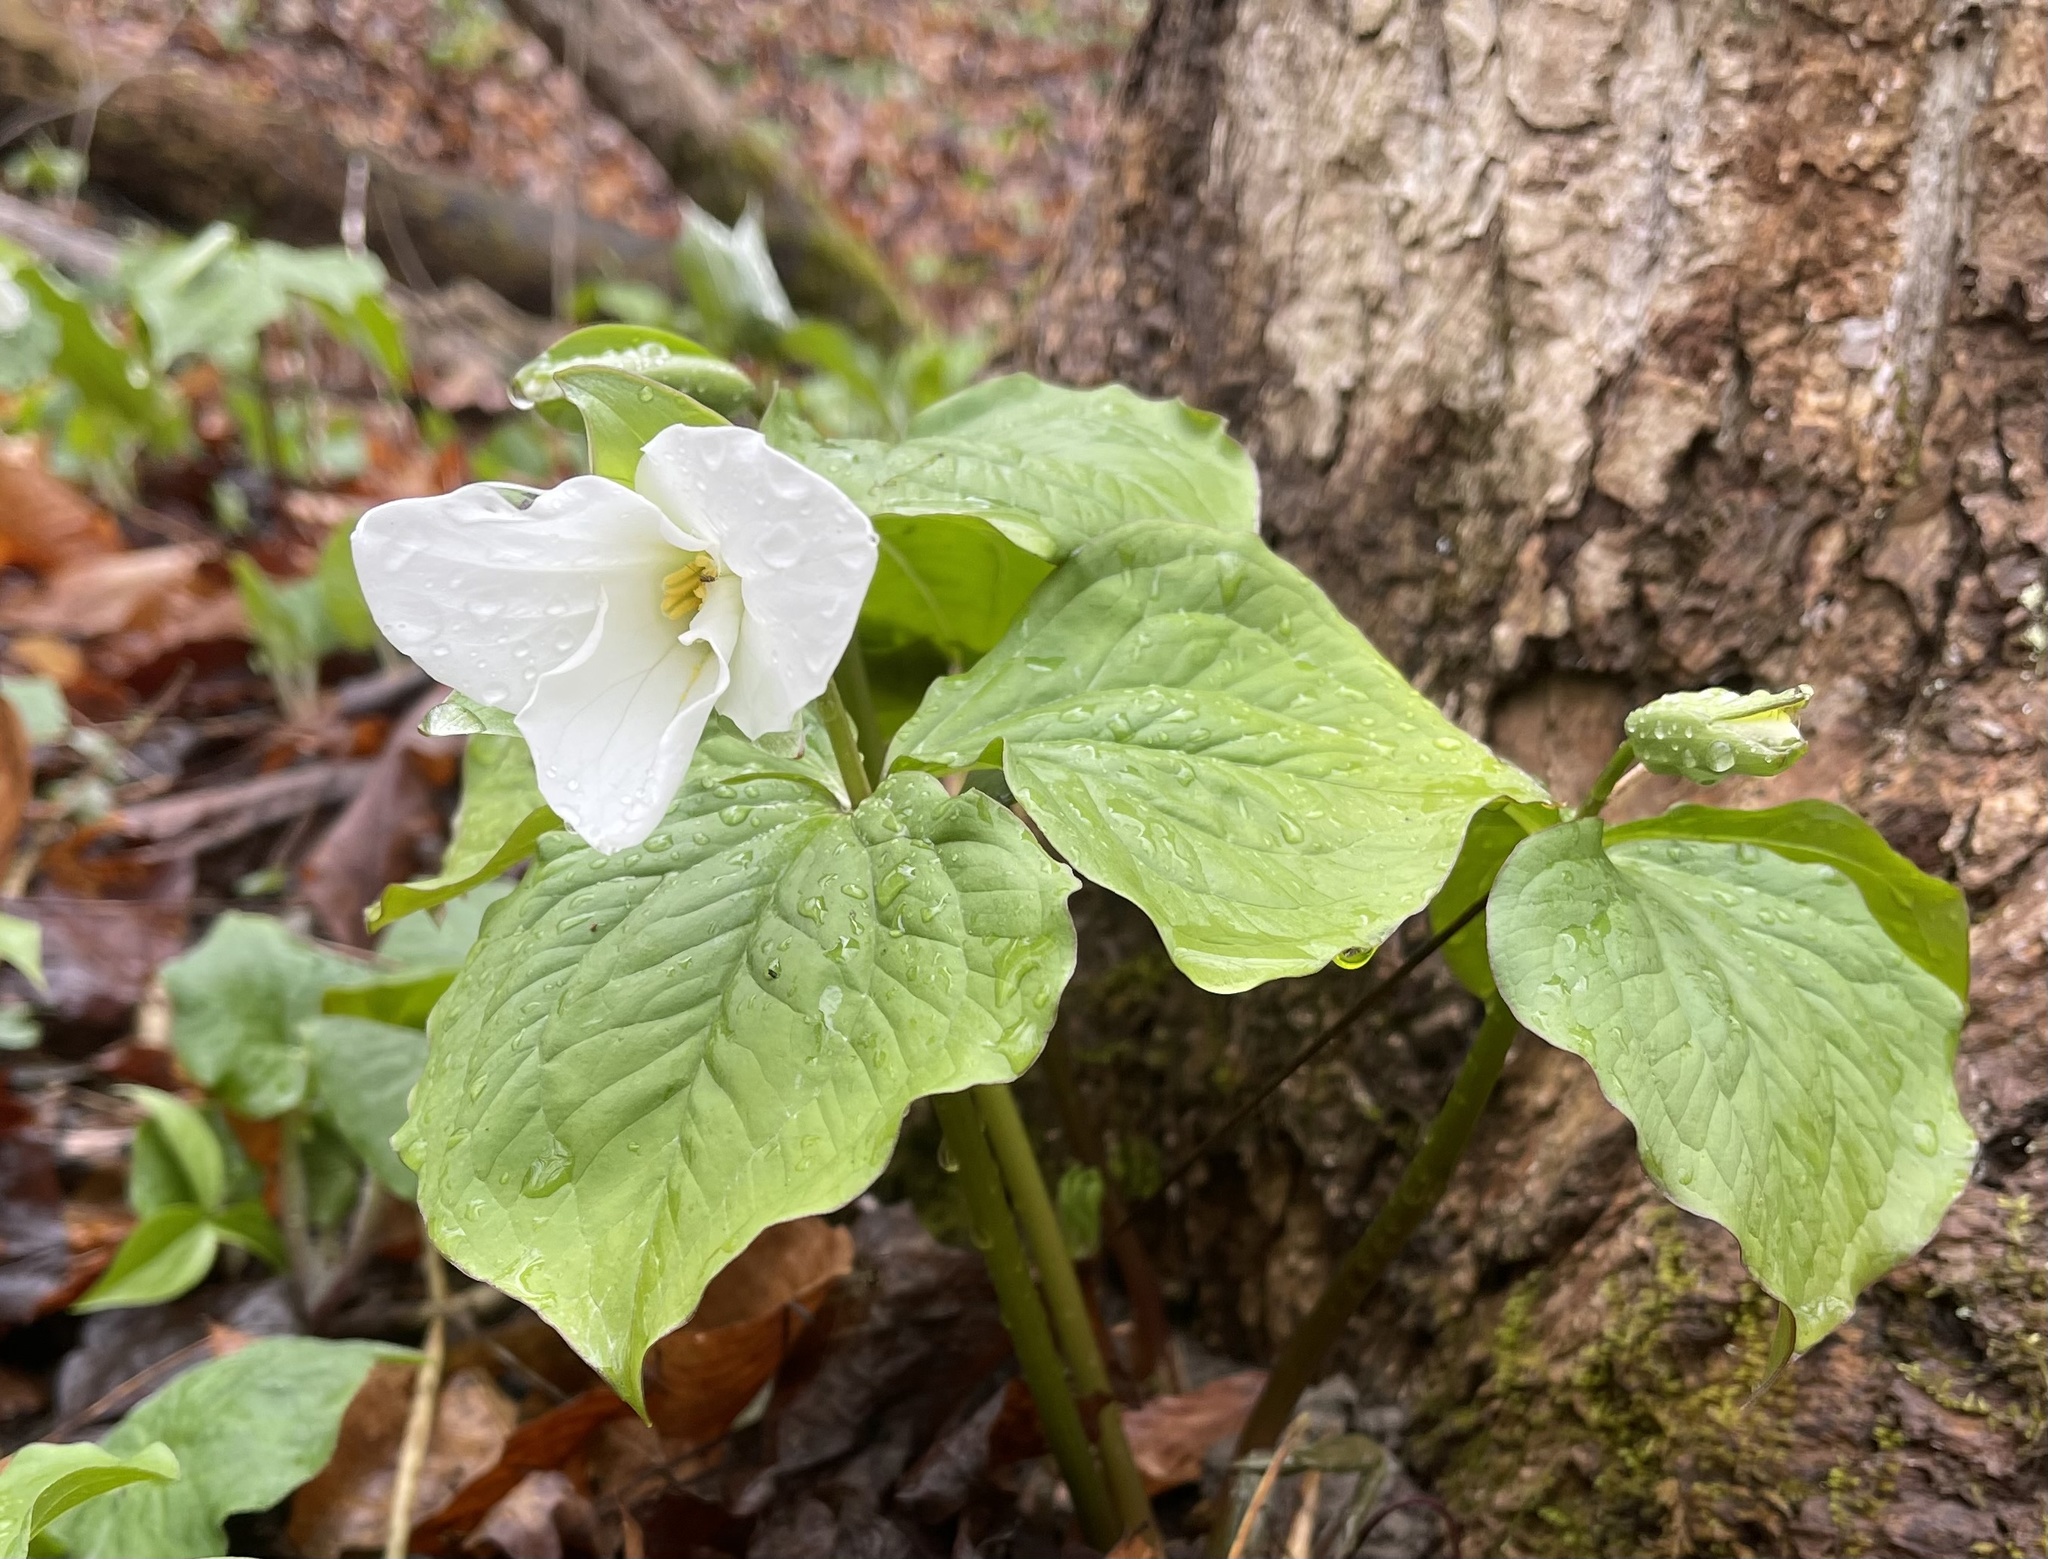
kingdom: Plantae
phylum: Tracheophyta
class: Liliopsida
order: Liliales
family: Melanthiaceae
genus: Trillium
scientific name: Trillium grandiflorum
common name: Great white trillium
